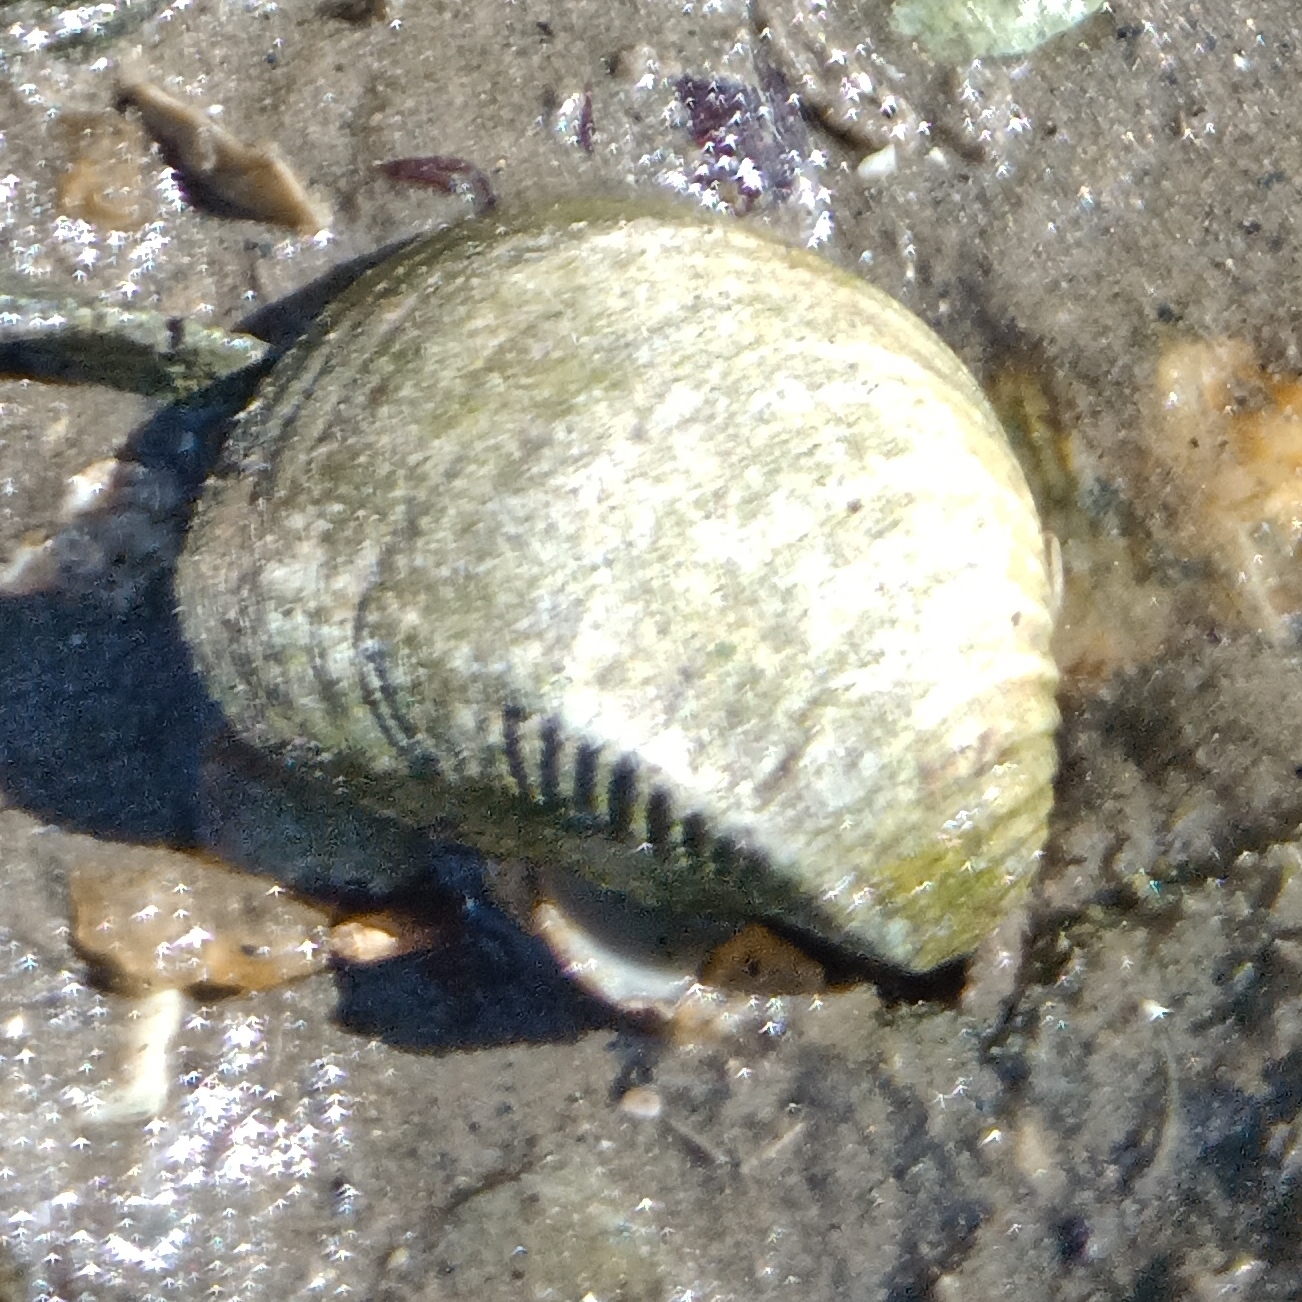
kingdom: Animalia
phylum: Mollusca
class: Bivalvia
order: Venerida
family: Veneridae
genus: Anomalocardia
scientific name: Anomalocardia flexuosa
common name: Carib pointed venus
